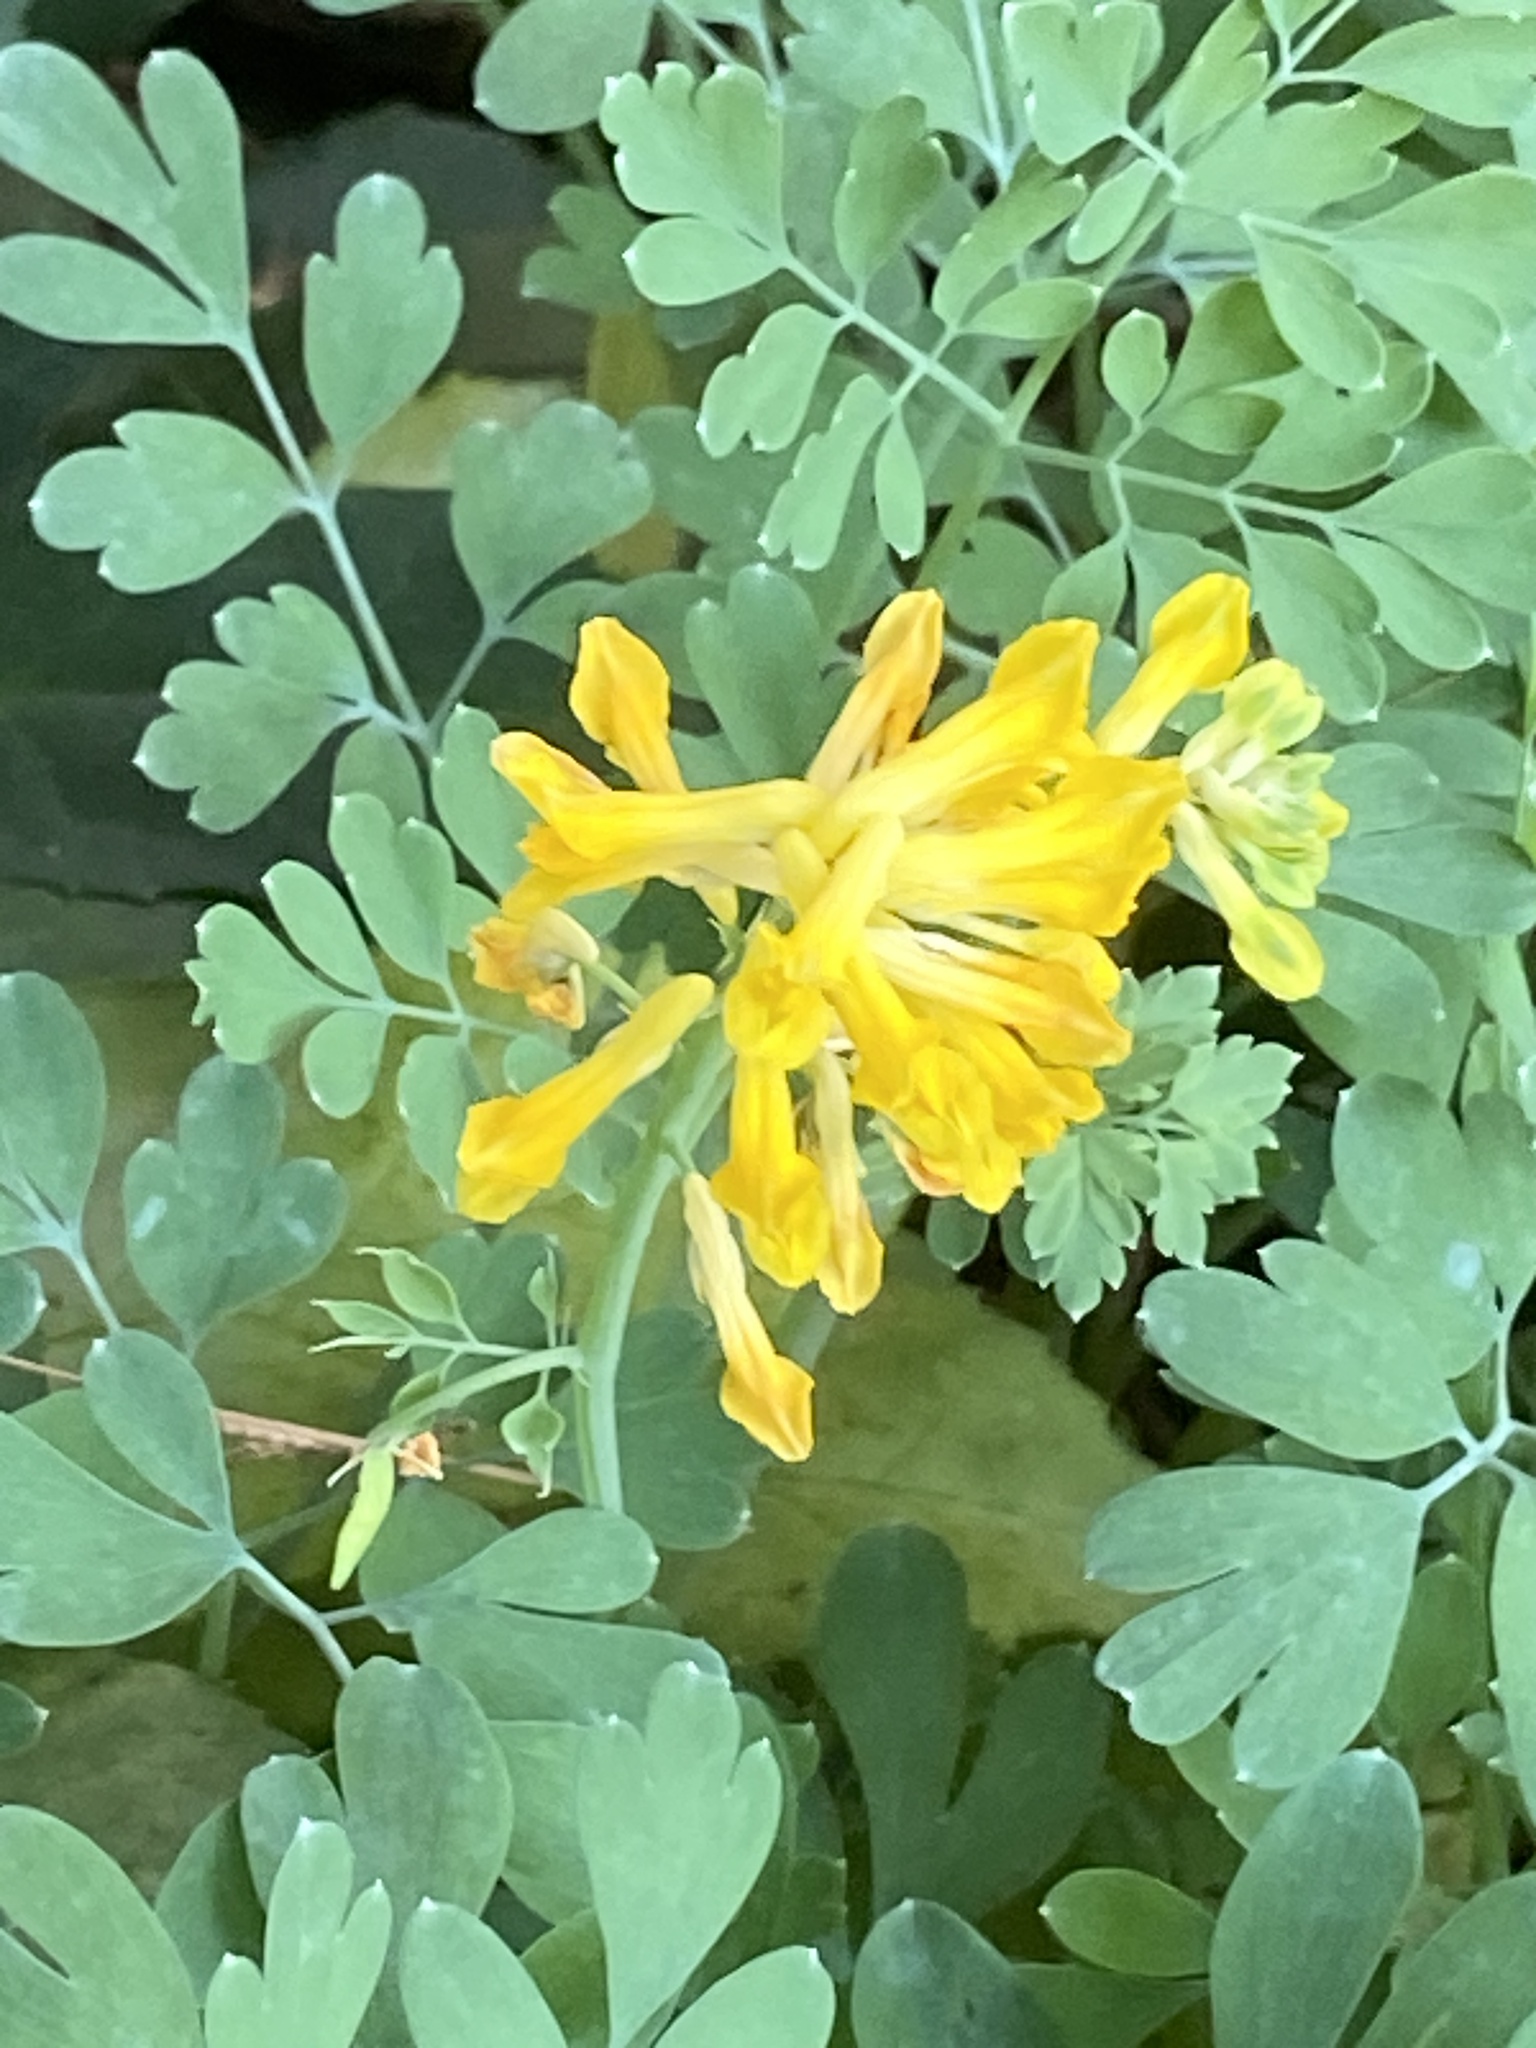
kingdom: Plantae
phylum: Tracheophyta
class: Magnoliopsida
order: Ranunculales
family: Papaveraceae
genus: Pseudofumaria
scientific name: Pseudofumaria lutea
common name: Yellow corydalis
